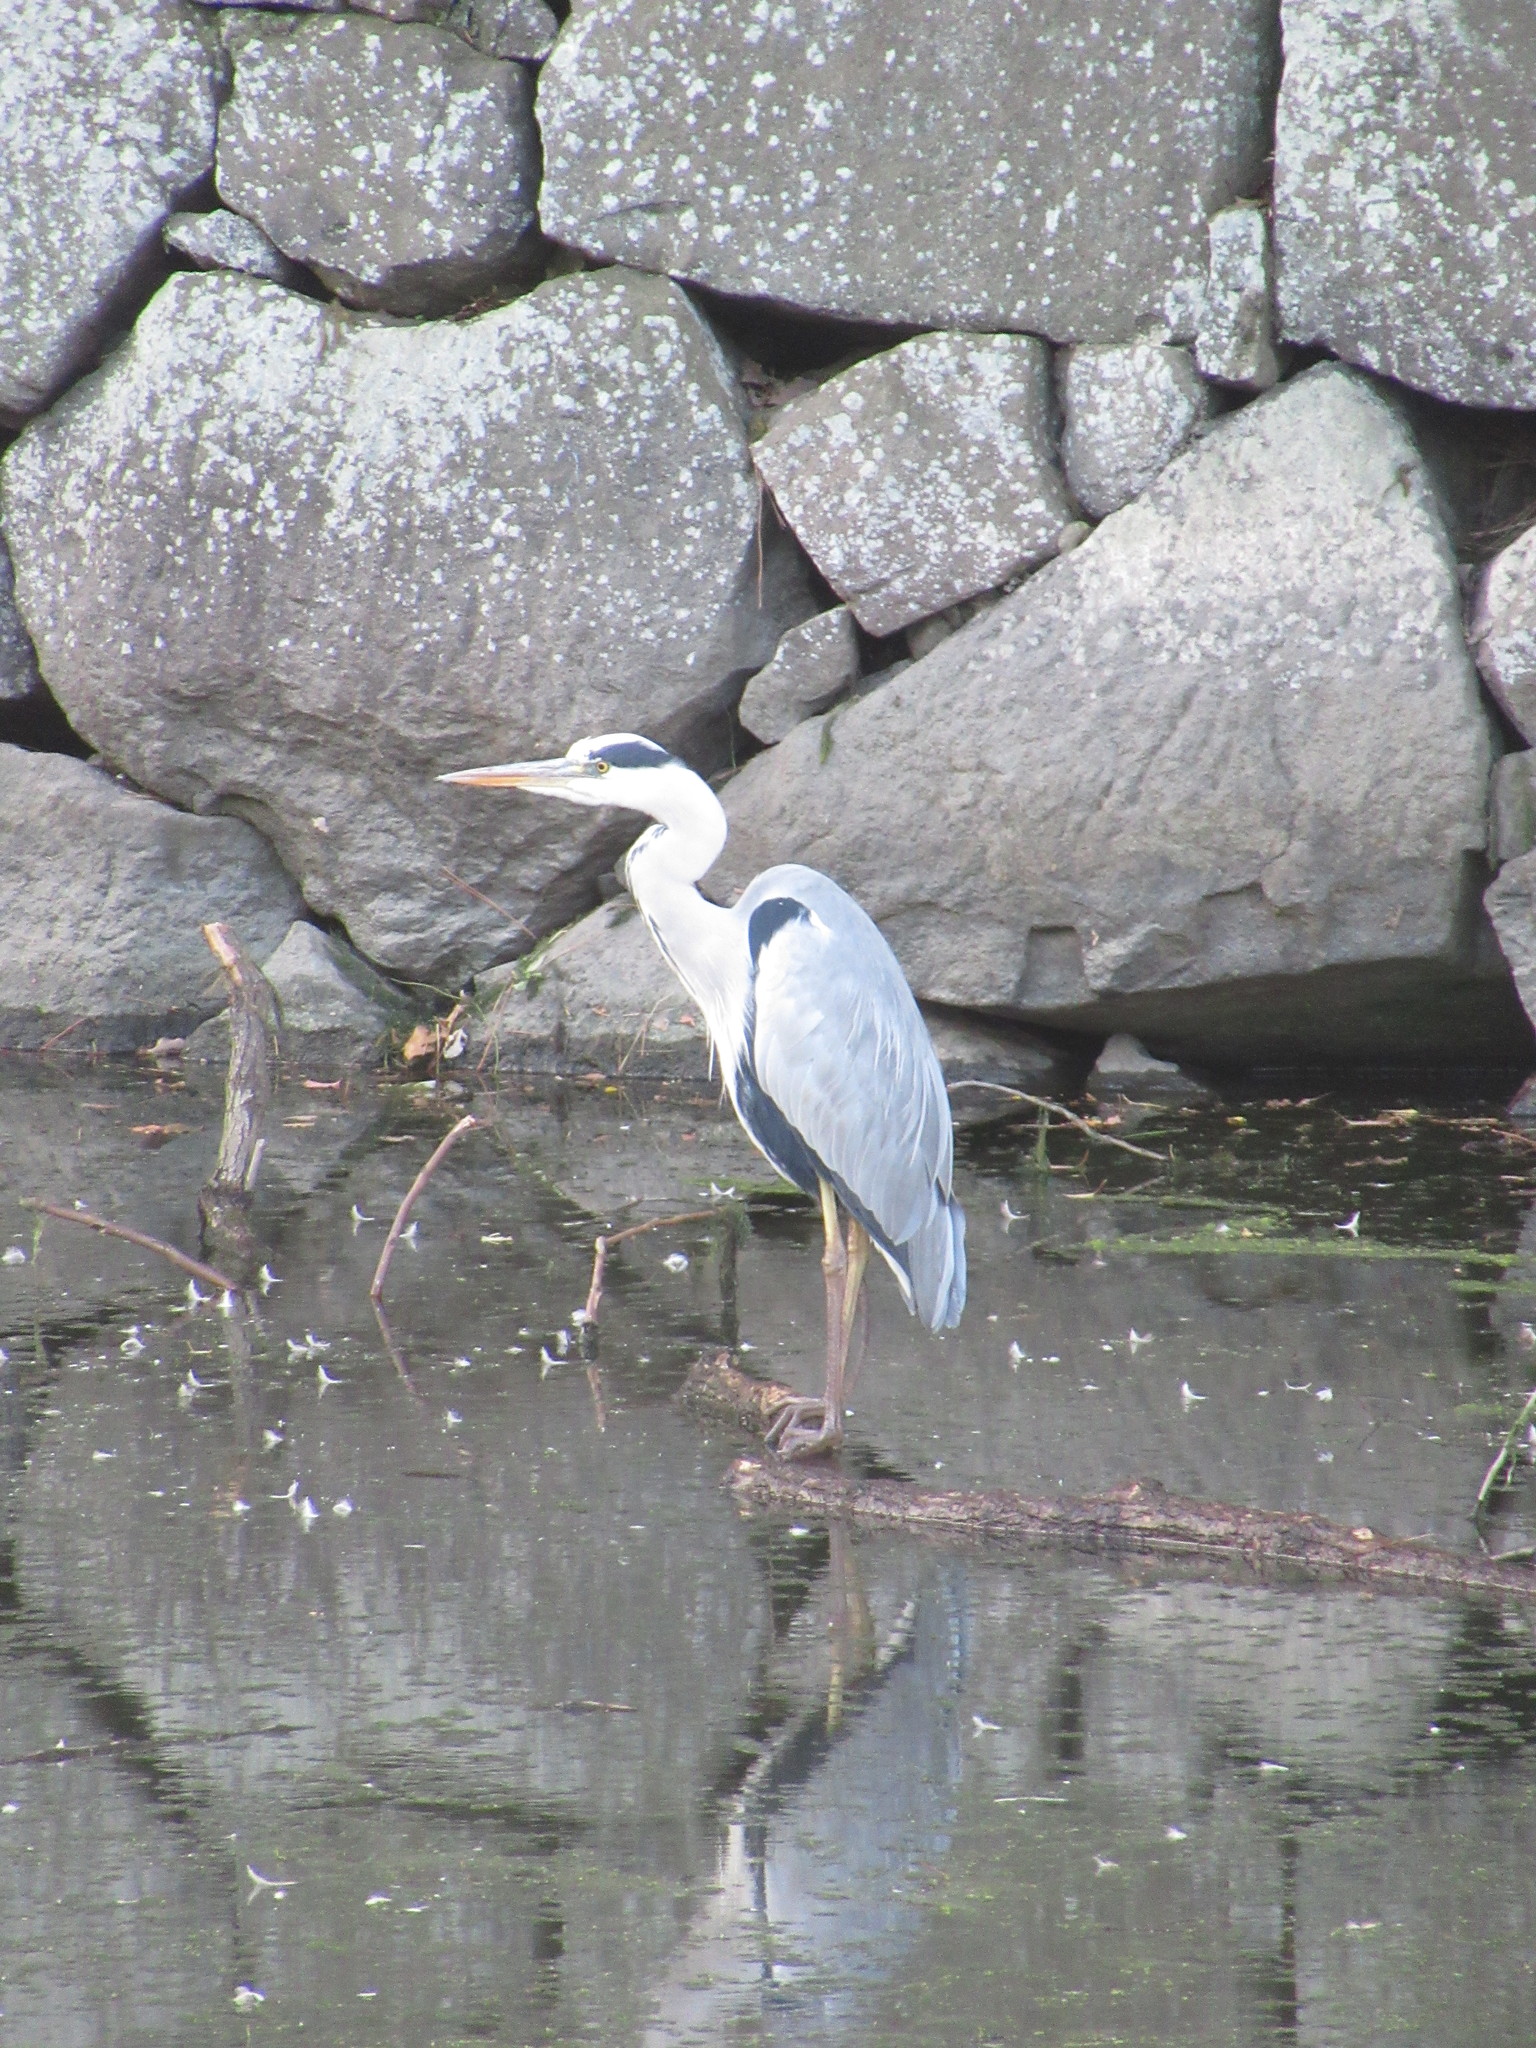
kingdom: Animalia
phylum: Chordata
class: Aves
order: Pelecaniformes
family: Ardeidae
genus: Ardea
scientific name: Ardea cinerea
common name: Grey heron
